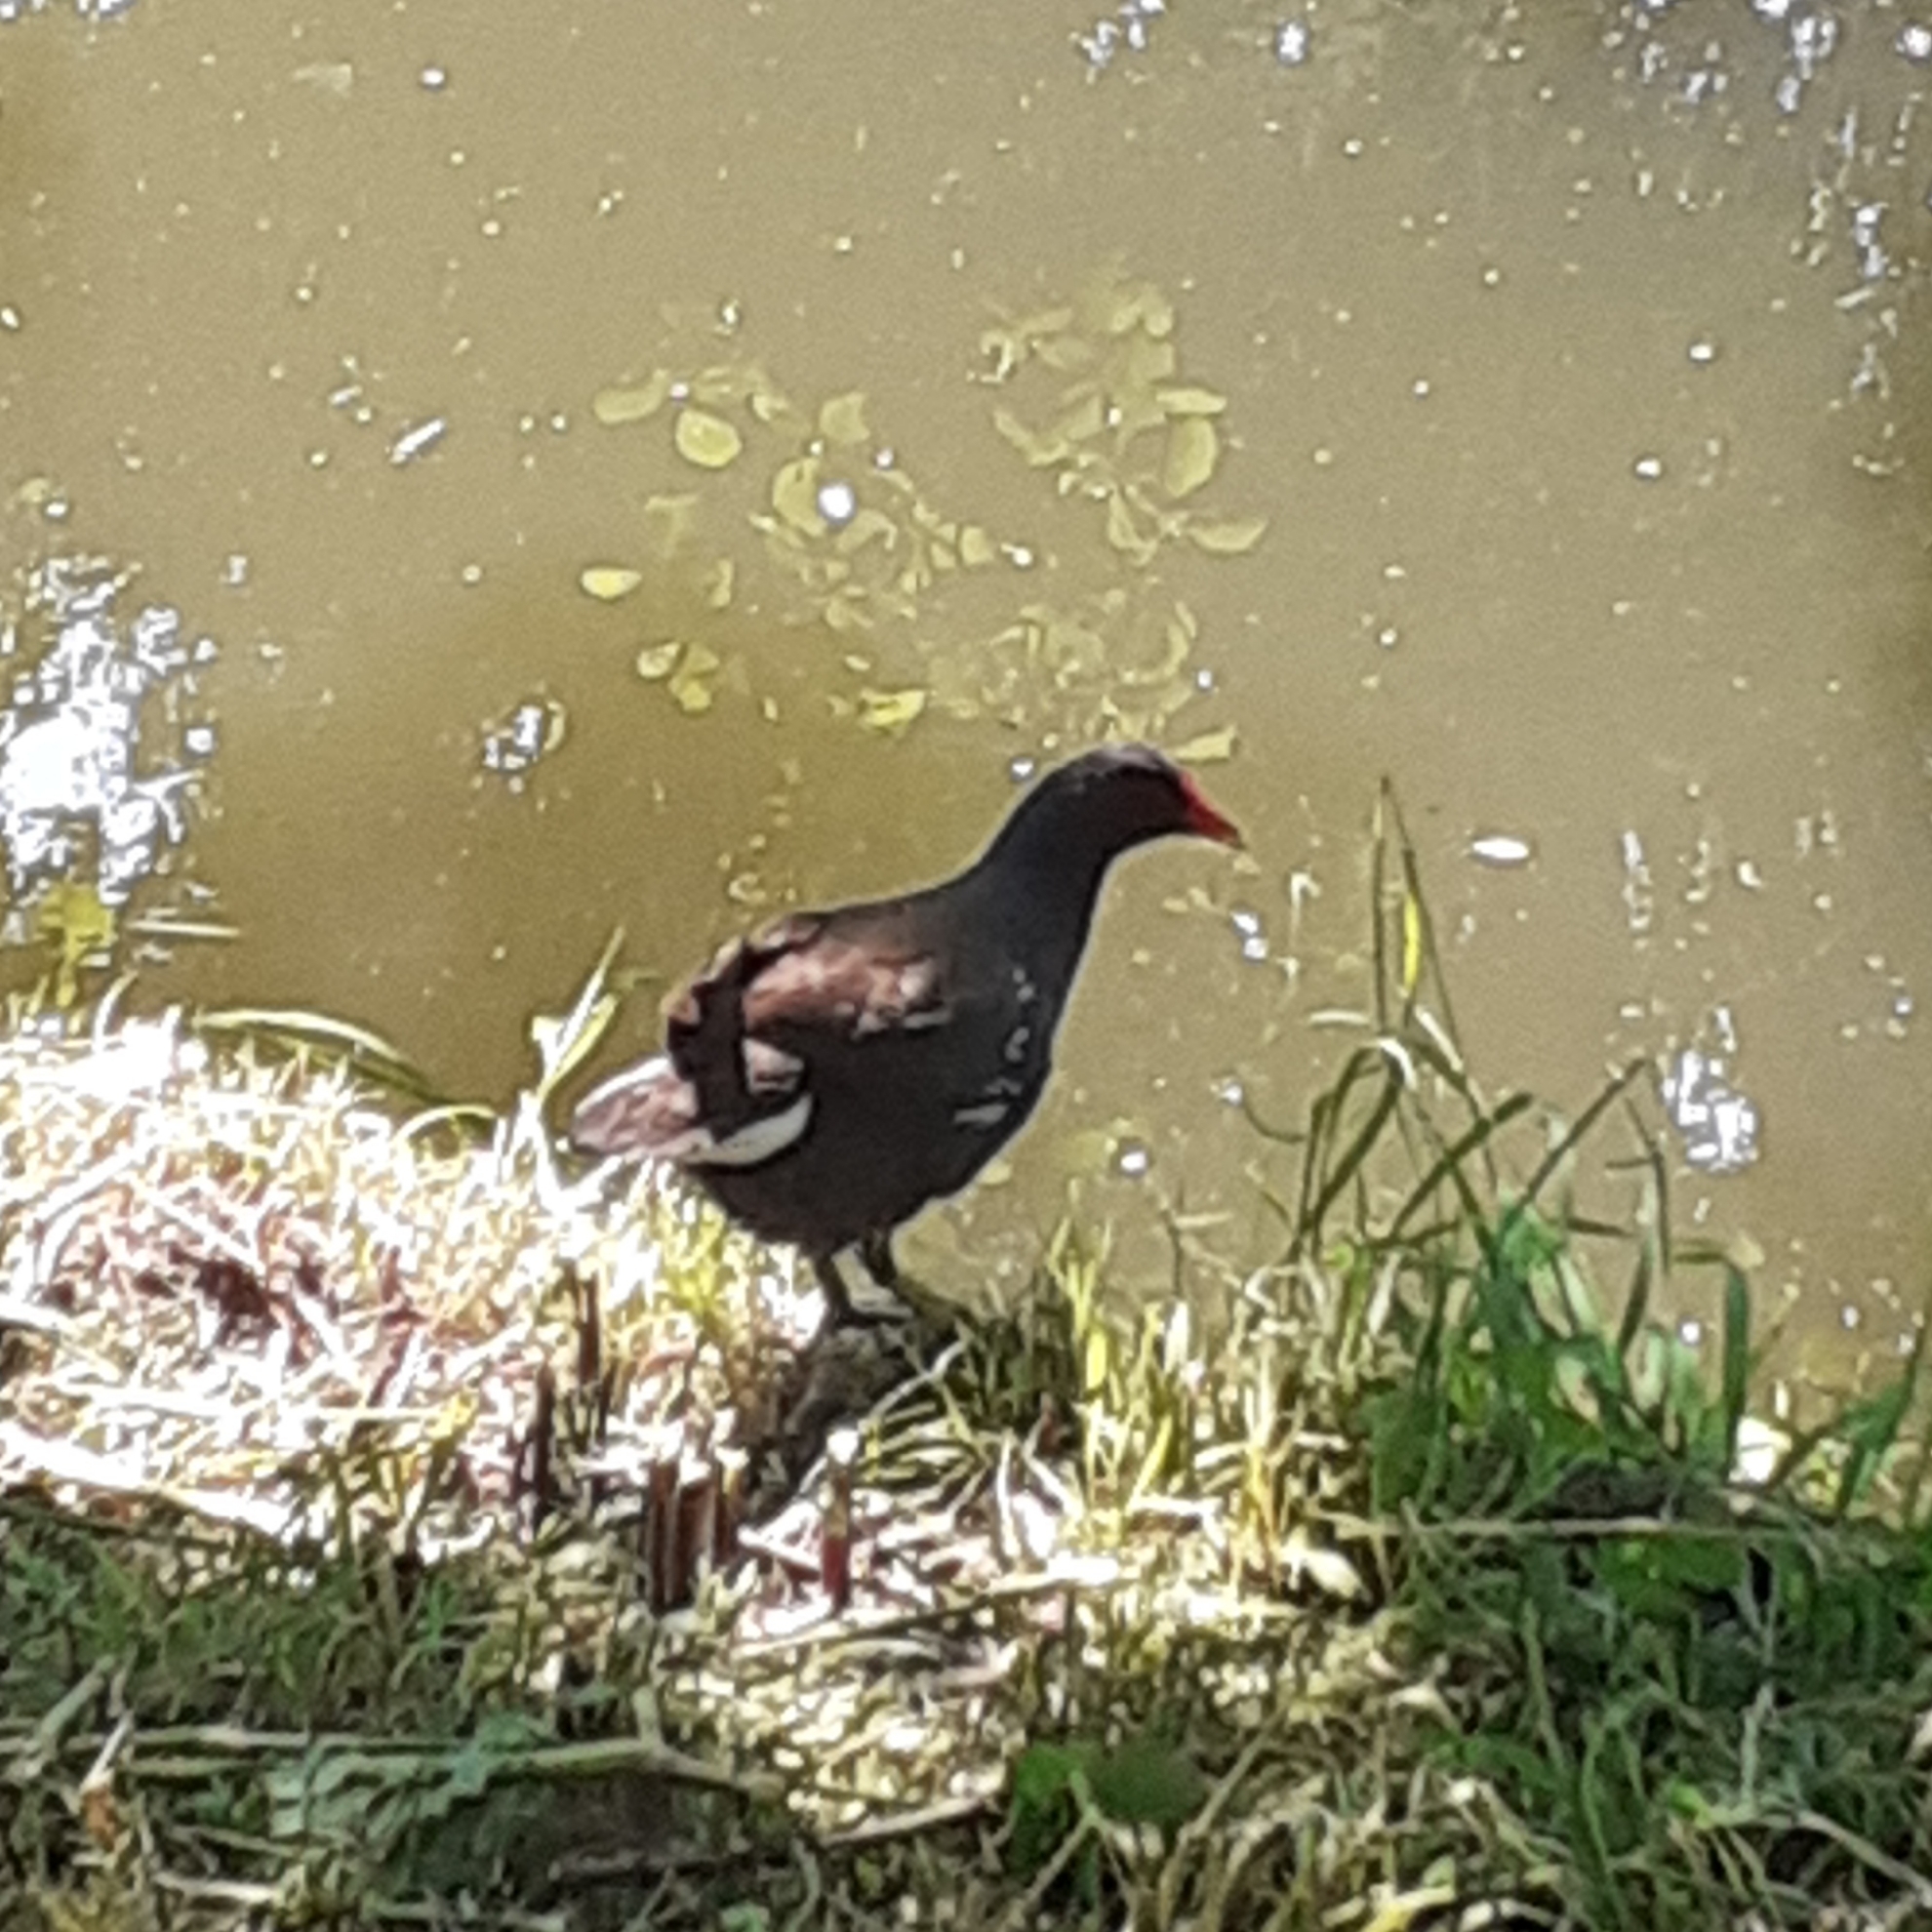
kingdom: Animalia
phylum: Chordata
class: Aves
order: Gruiformes
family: Rallidae
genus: Gallinula
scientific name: Gallinula chloropus
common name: Common moorhen
